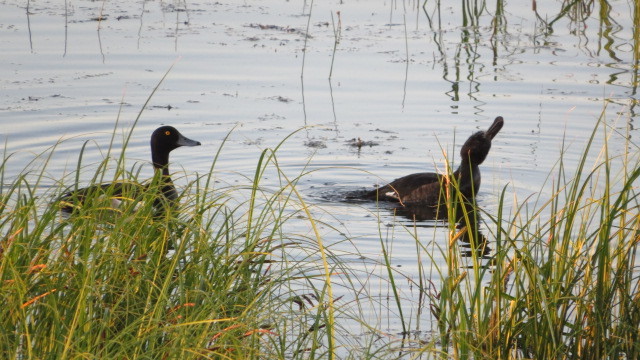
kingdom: Animalia
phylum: Chordata
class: Aves
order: Anseriformes
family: Anatidae
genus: Aythya
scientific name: Aythya fuligula
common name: Tufted duck
